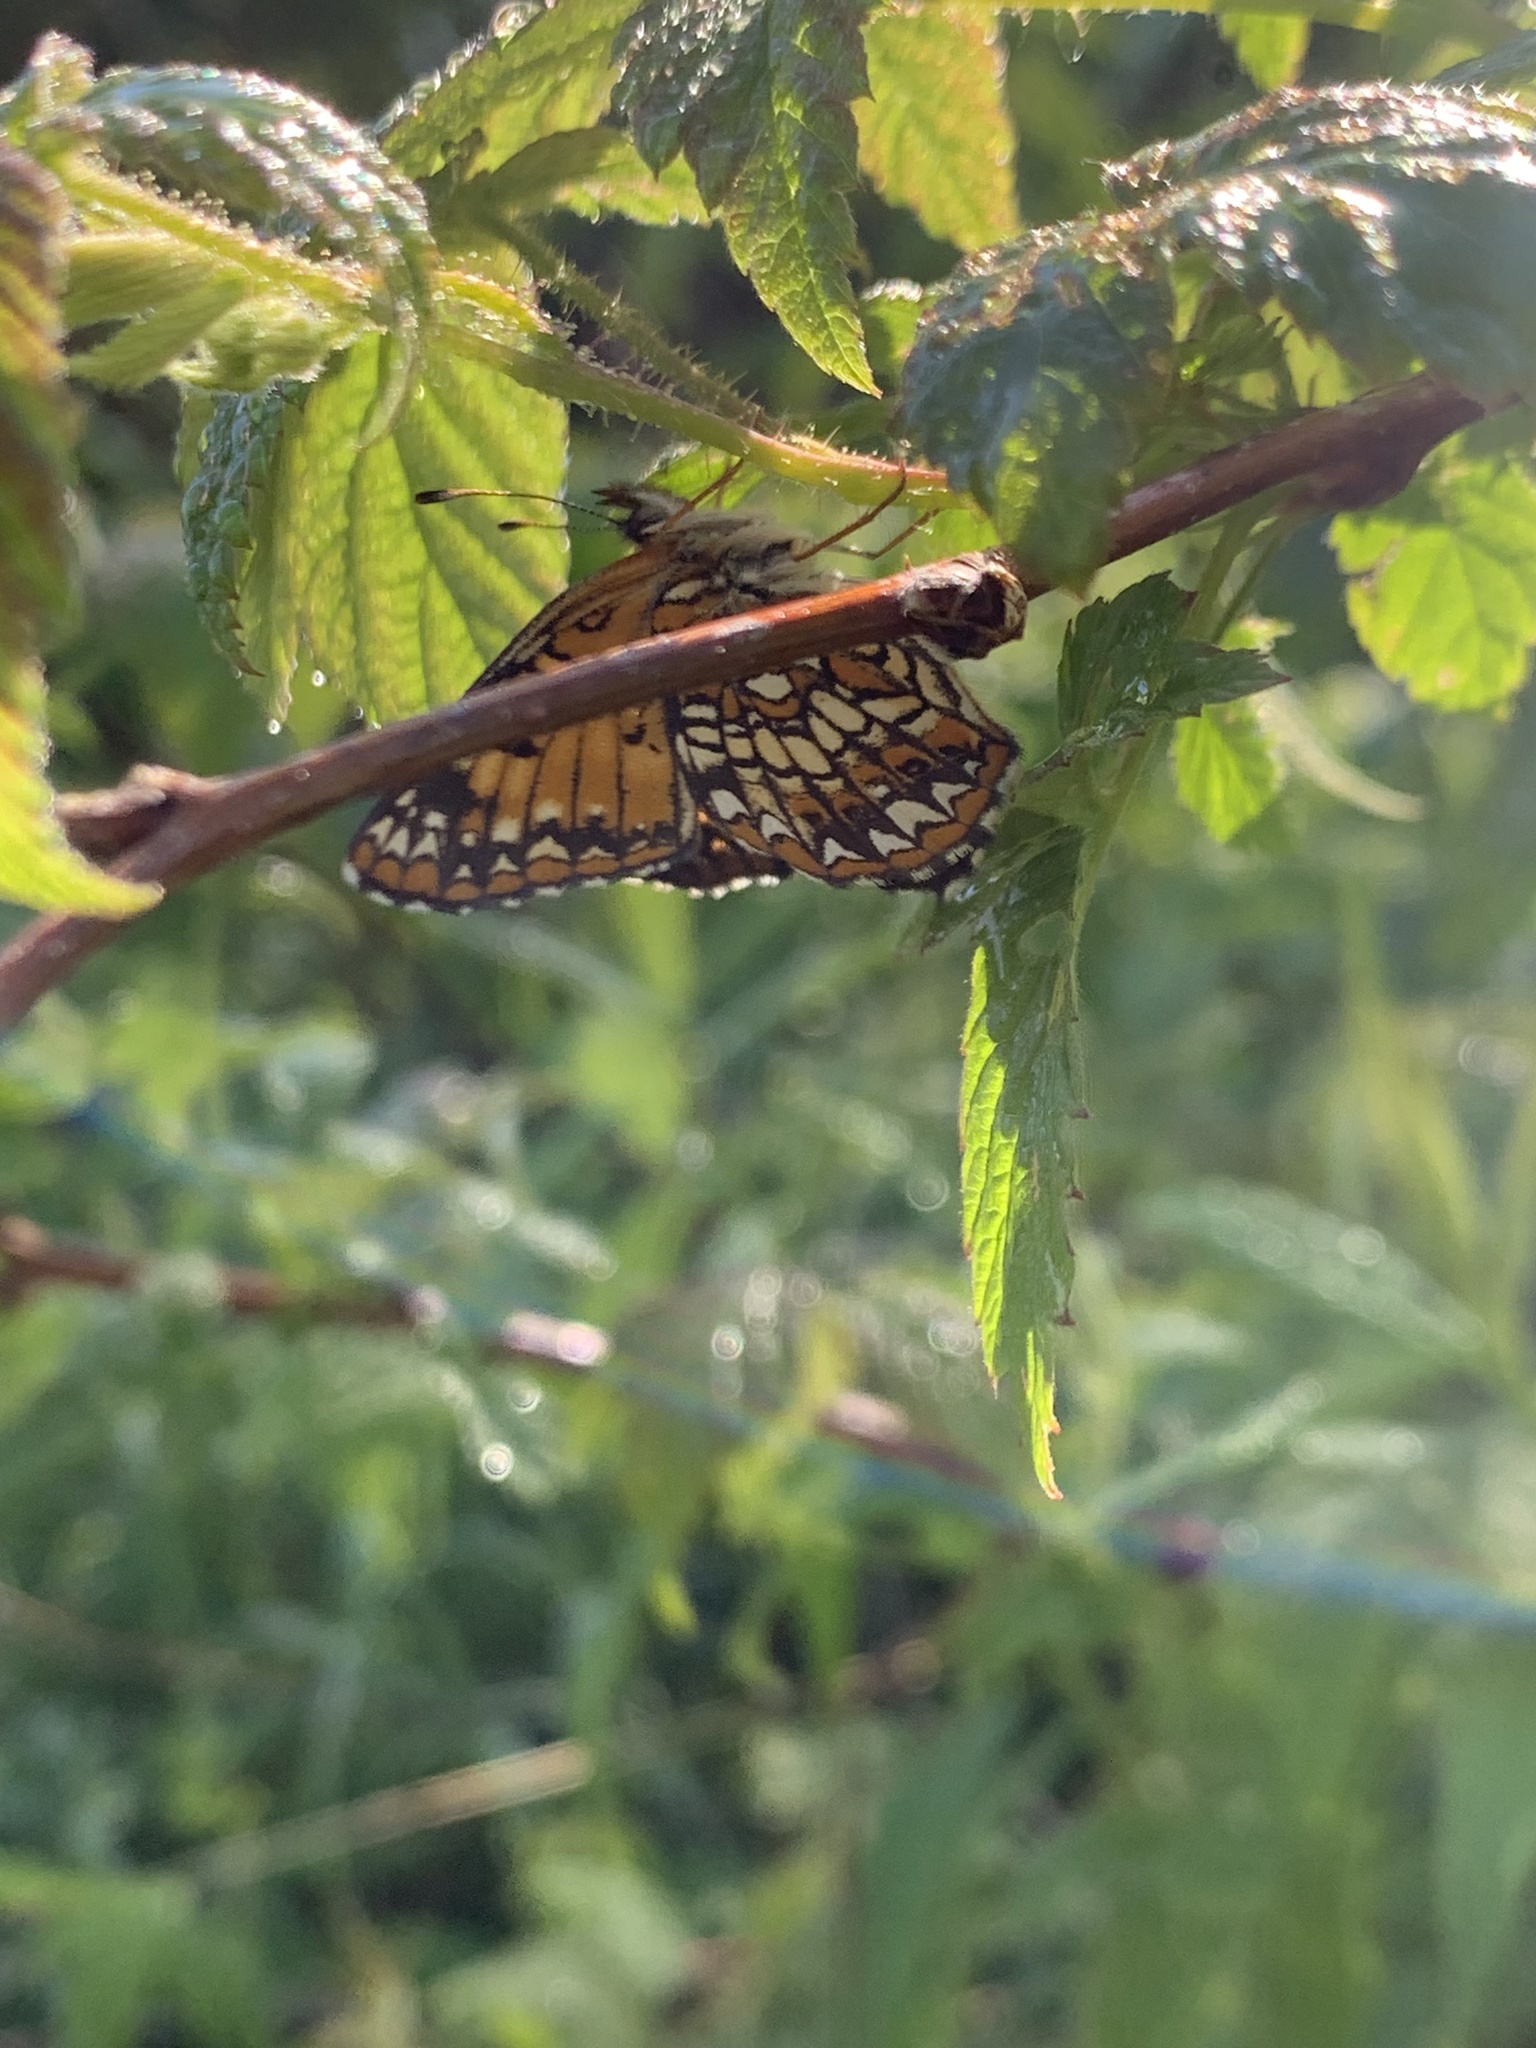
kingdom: Animalia
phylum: Arthropoda
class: Insecta
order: Lepidoptera
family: Nymphalidae
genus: Chlosyne
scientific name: Chlosyne harrisii
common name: Harris's checkerspot
